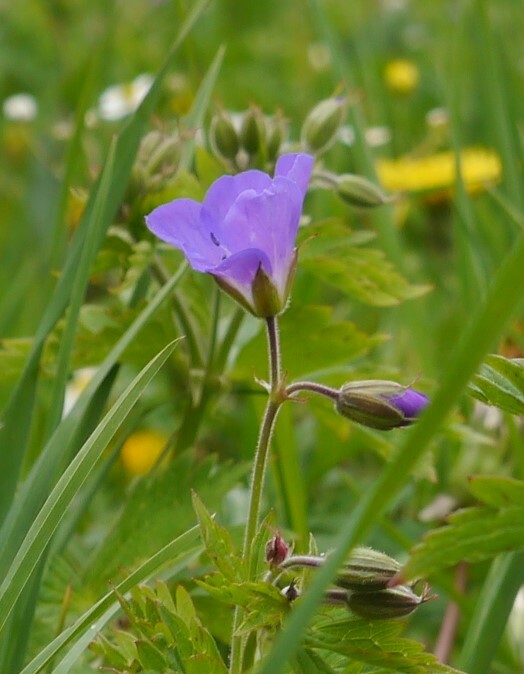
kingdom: Plantae
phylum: Tracheophyta
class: Magnoliopsida
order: Geraniales
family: Geraniaceae
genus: Geranium
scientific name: Geranium sylvaticum
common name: Wood crane's-bill
